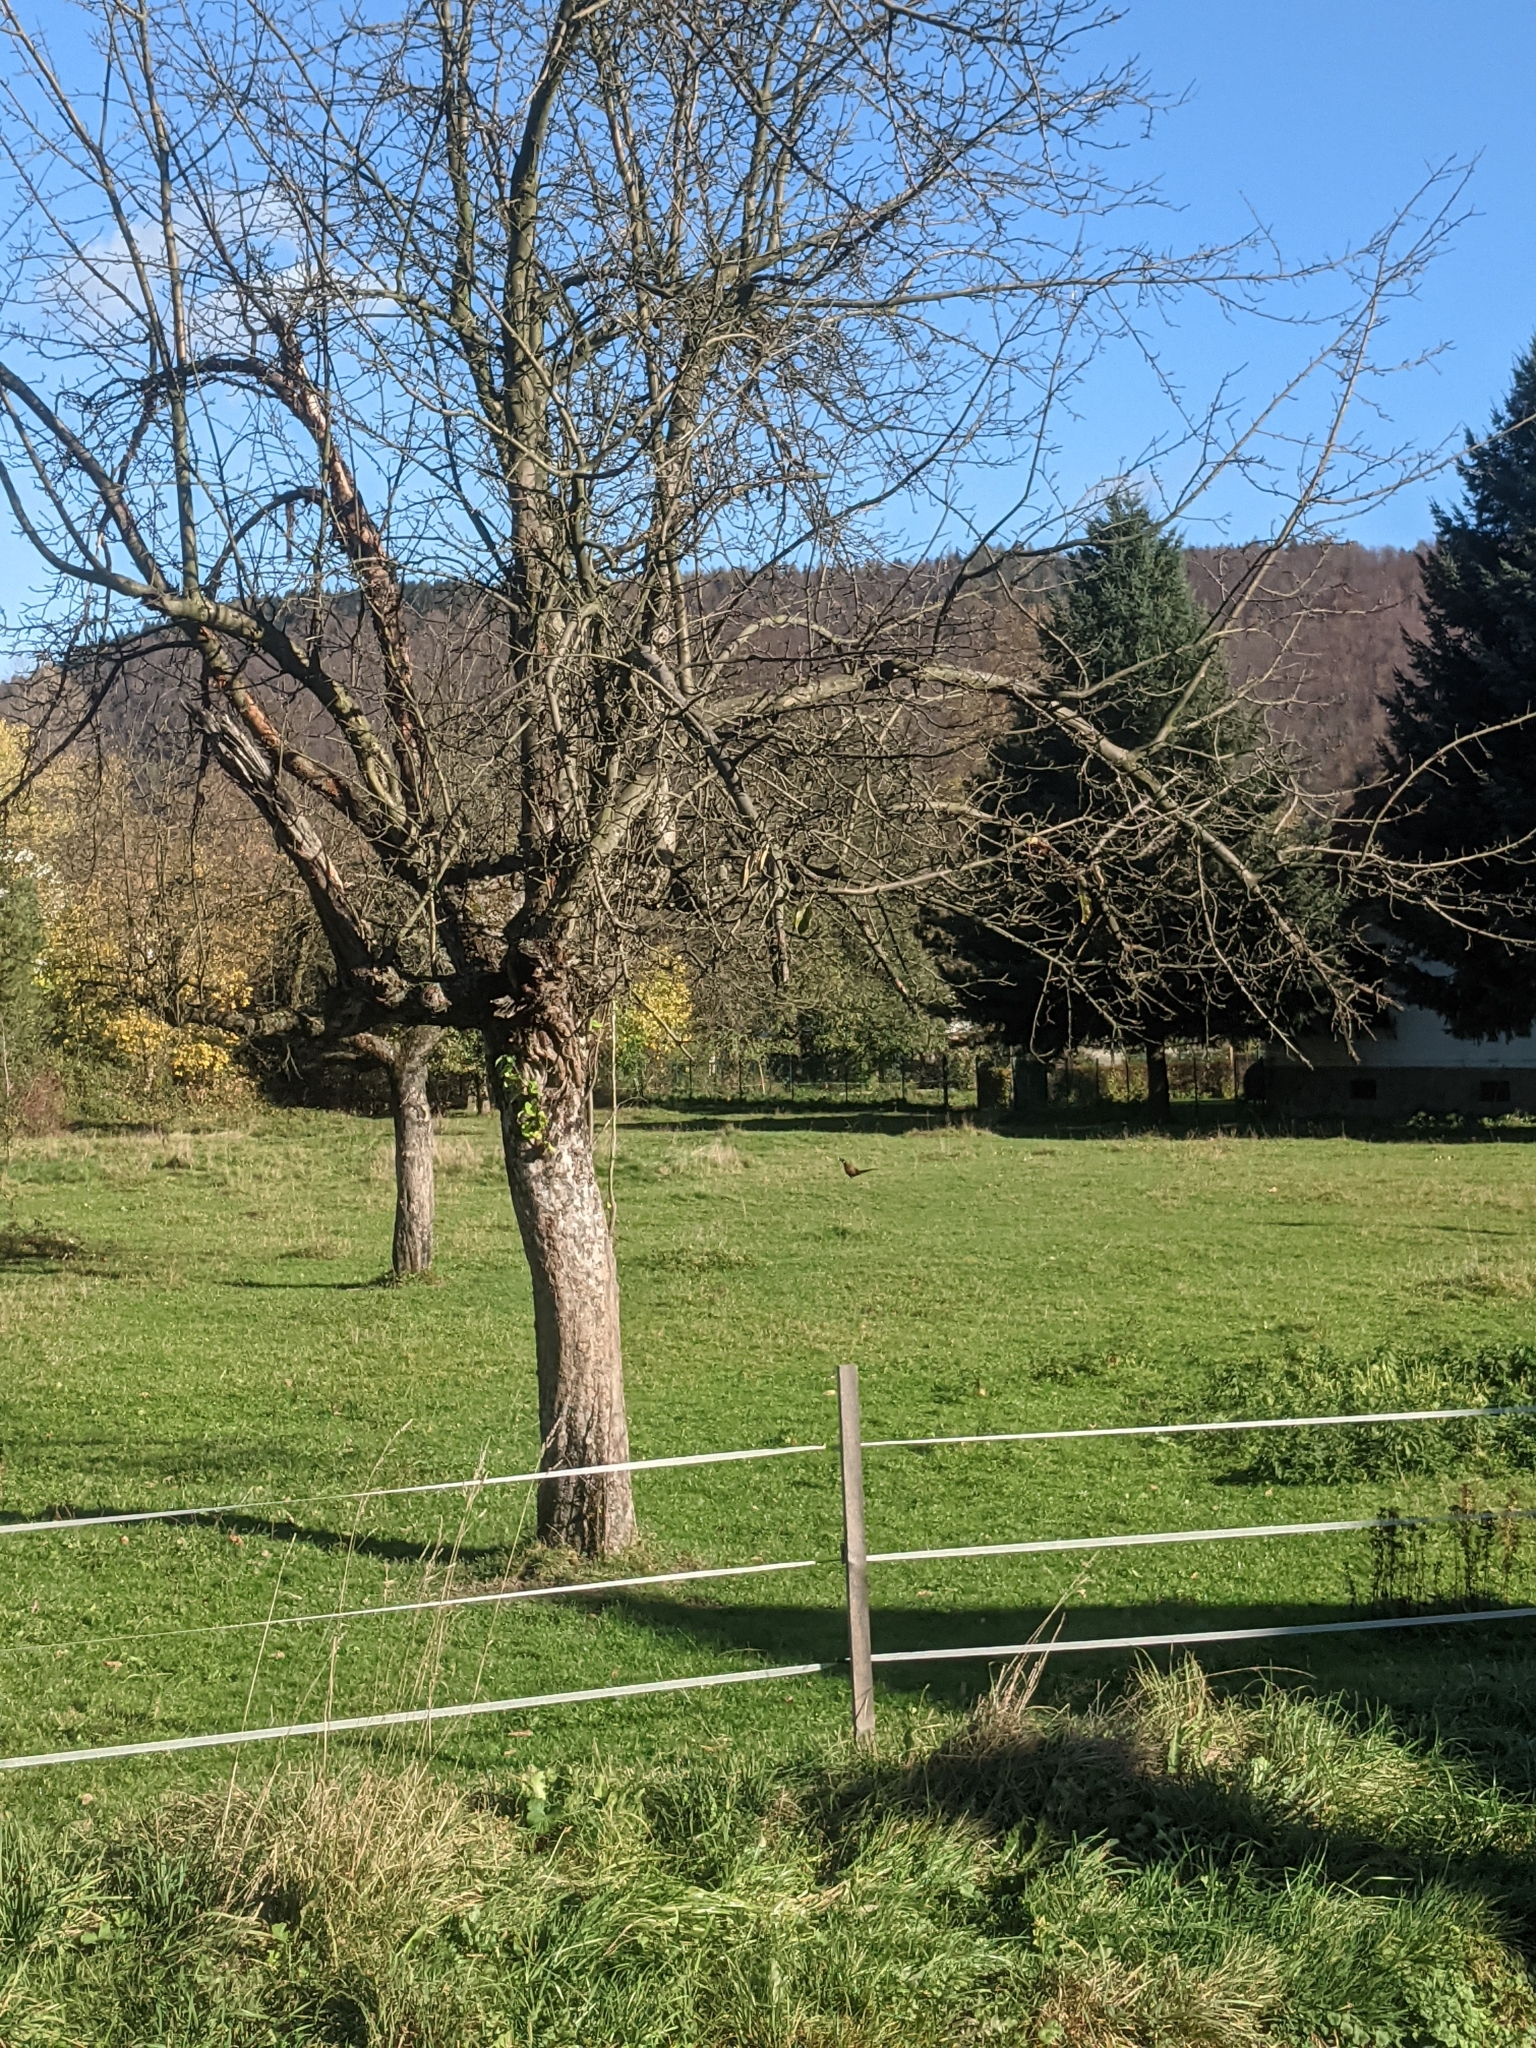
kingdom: Animalia
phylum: Chordata
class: Aves
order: Galliformes
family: Phasianidae
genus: Phasianus
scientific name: Phasianus colchicus
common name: Common pheasant
